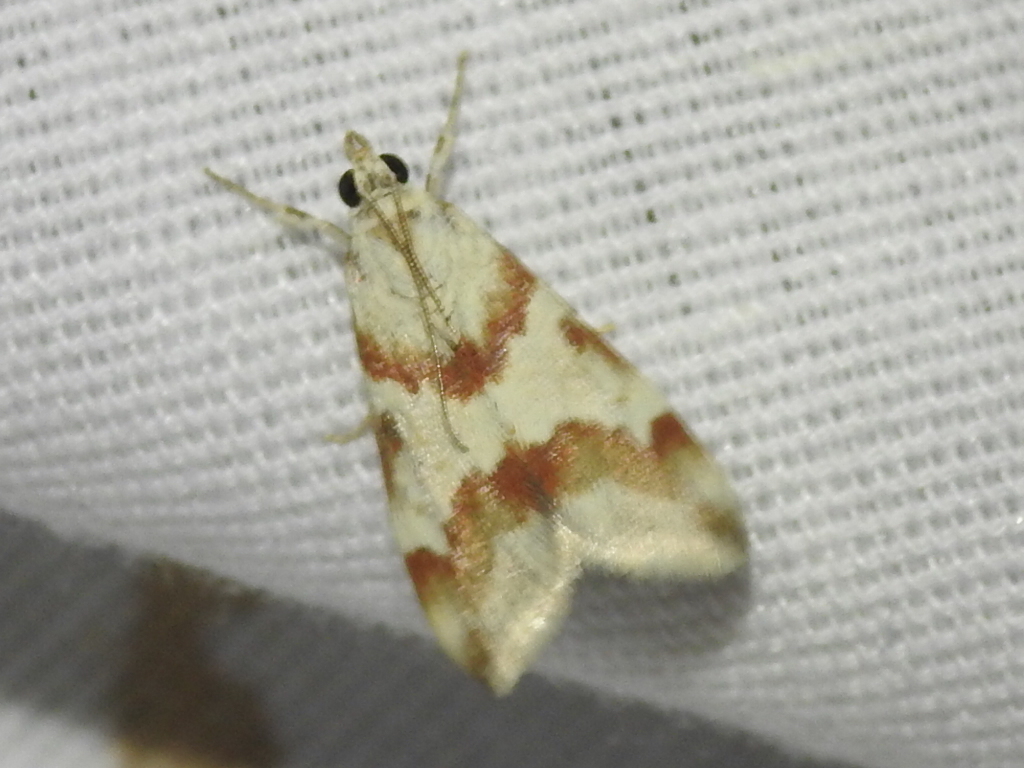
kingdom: Animalia
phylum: Arthropoda
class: Insecta
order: Lepidoptera
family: Crambidae
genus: Noctuelia
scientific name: Noctuelia Mimoschinia rufofascialis
